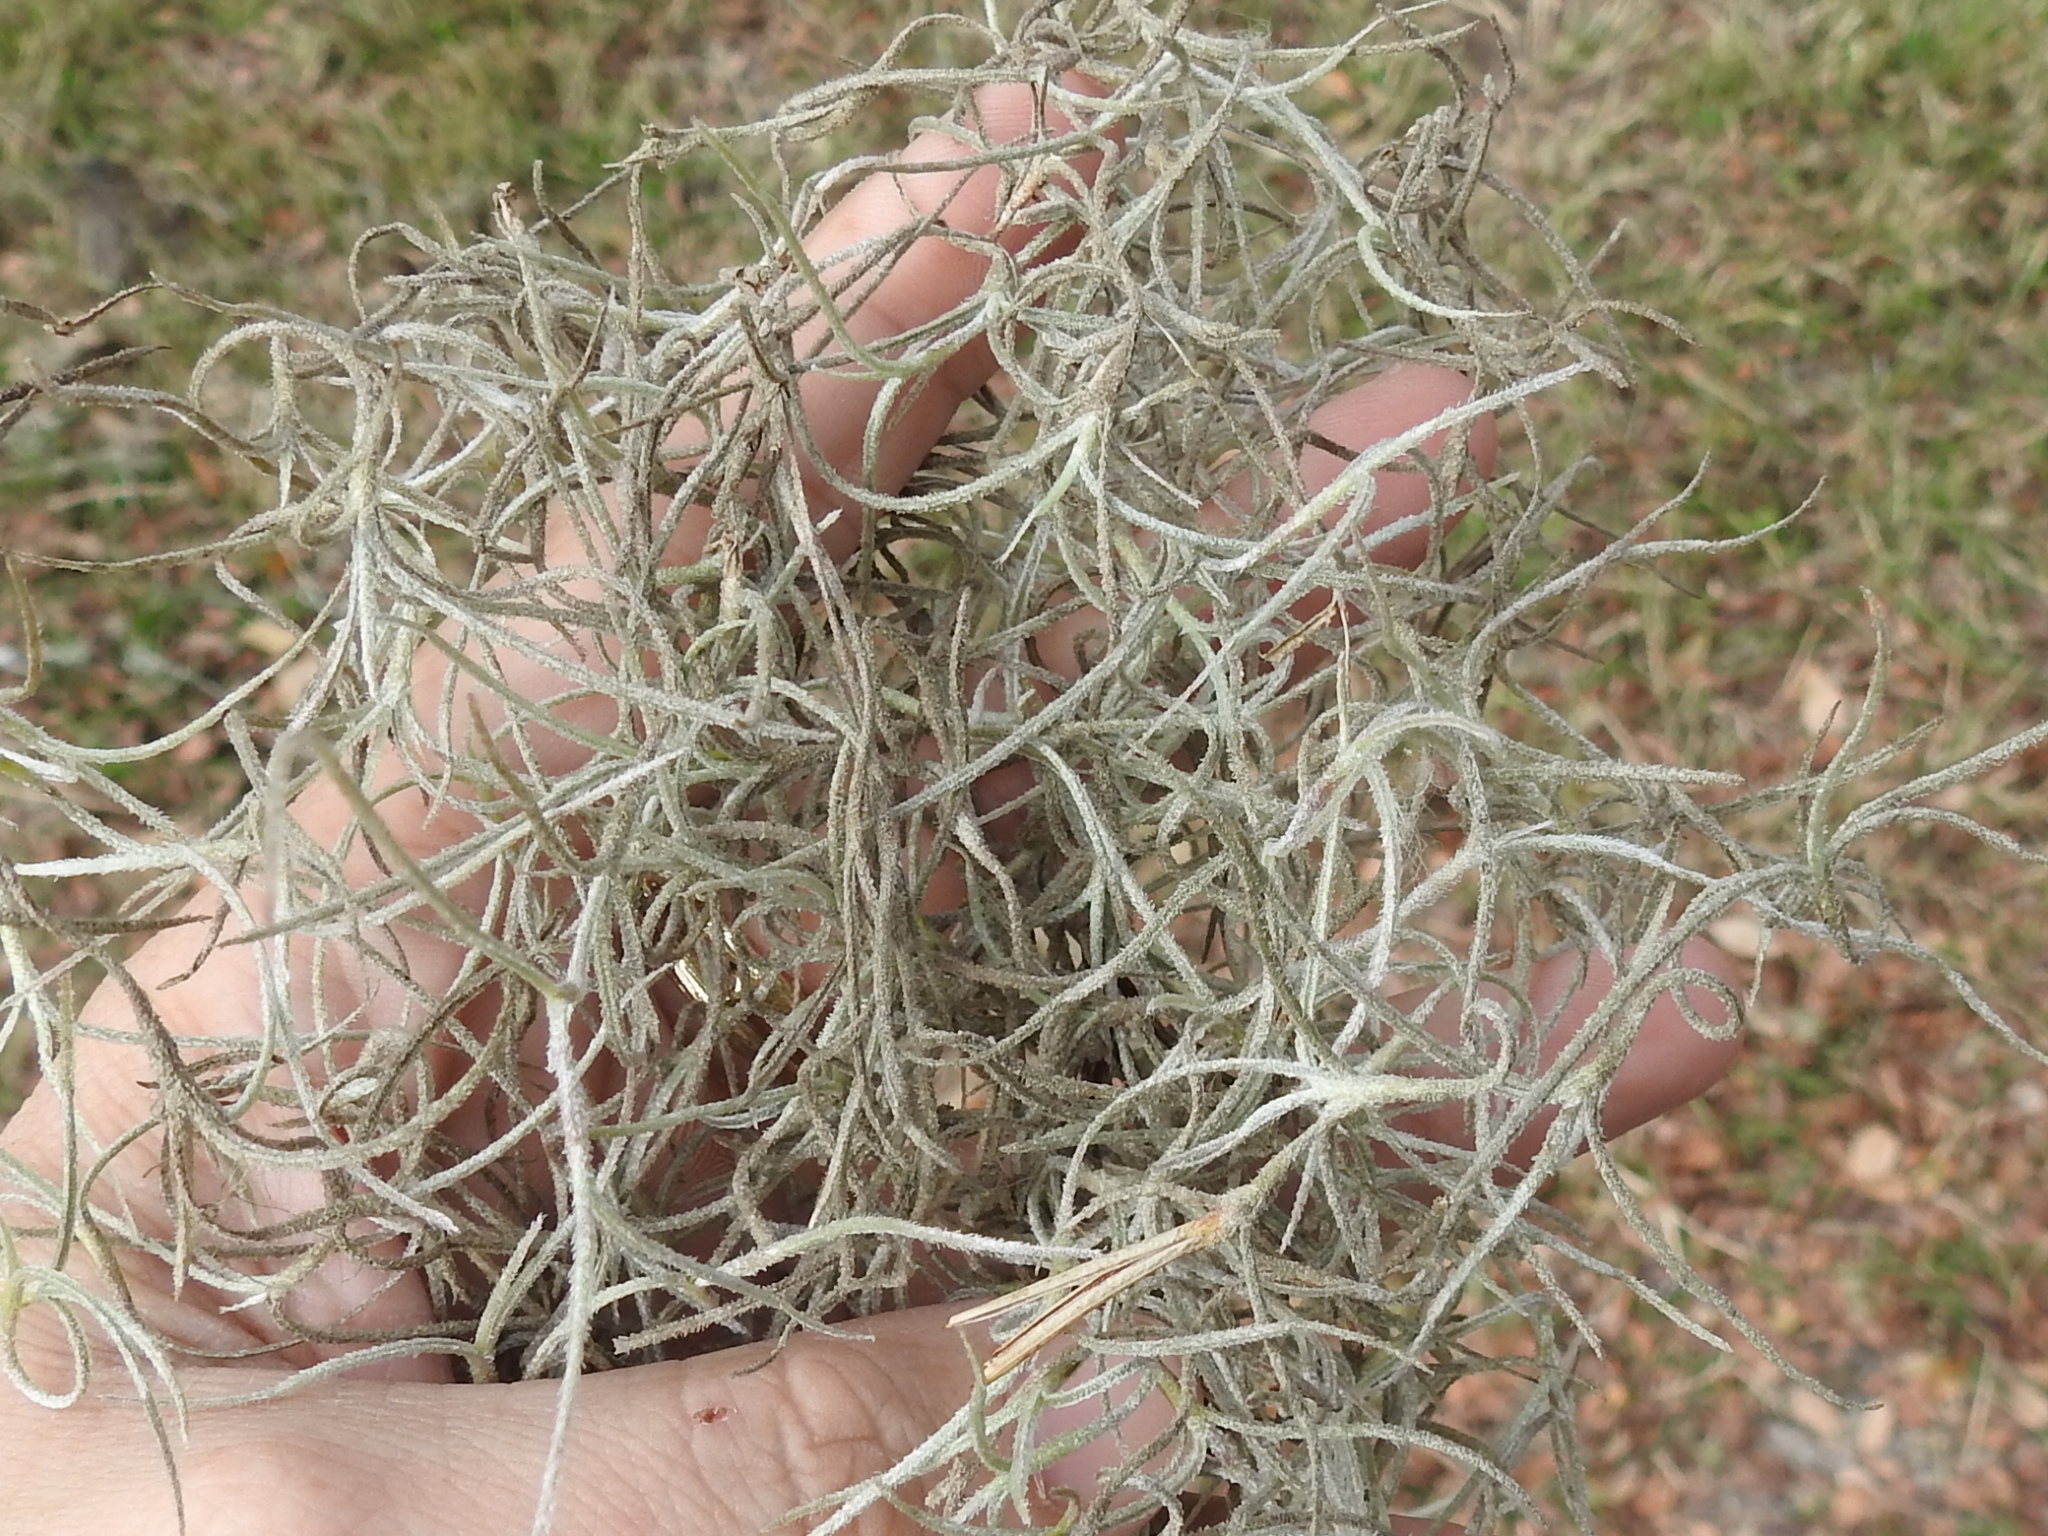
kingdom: Plantae
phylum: Tracheophyta
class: Liliopsida
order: Poales
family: Bromeliaceae
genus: Tillandsia
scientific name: Tillandsia usneoides
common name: Spanish moss
